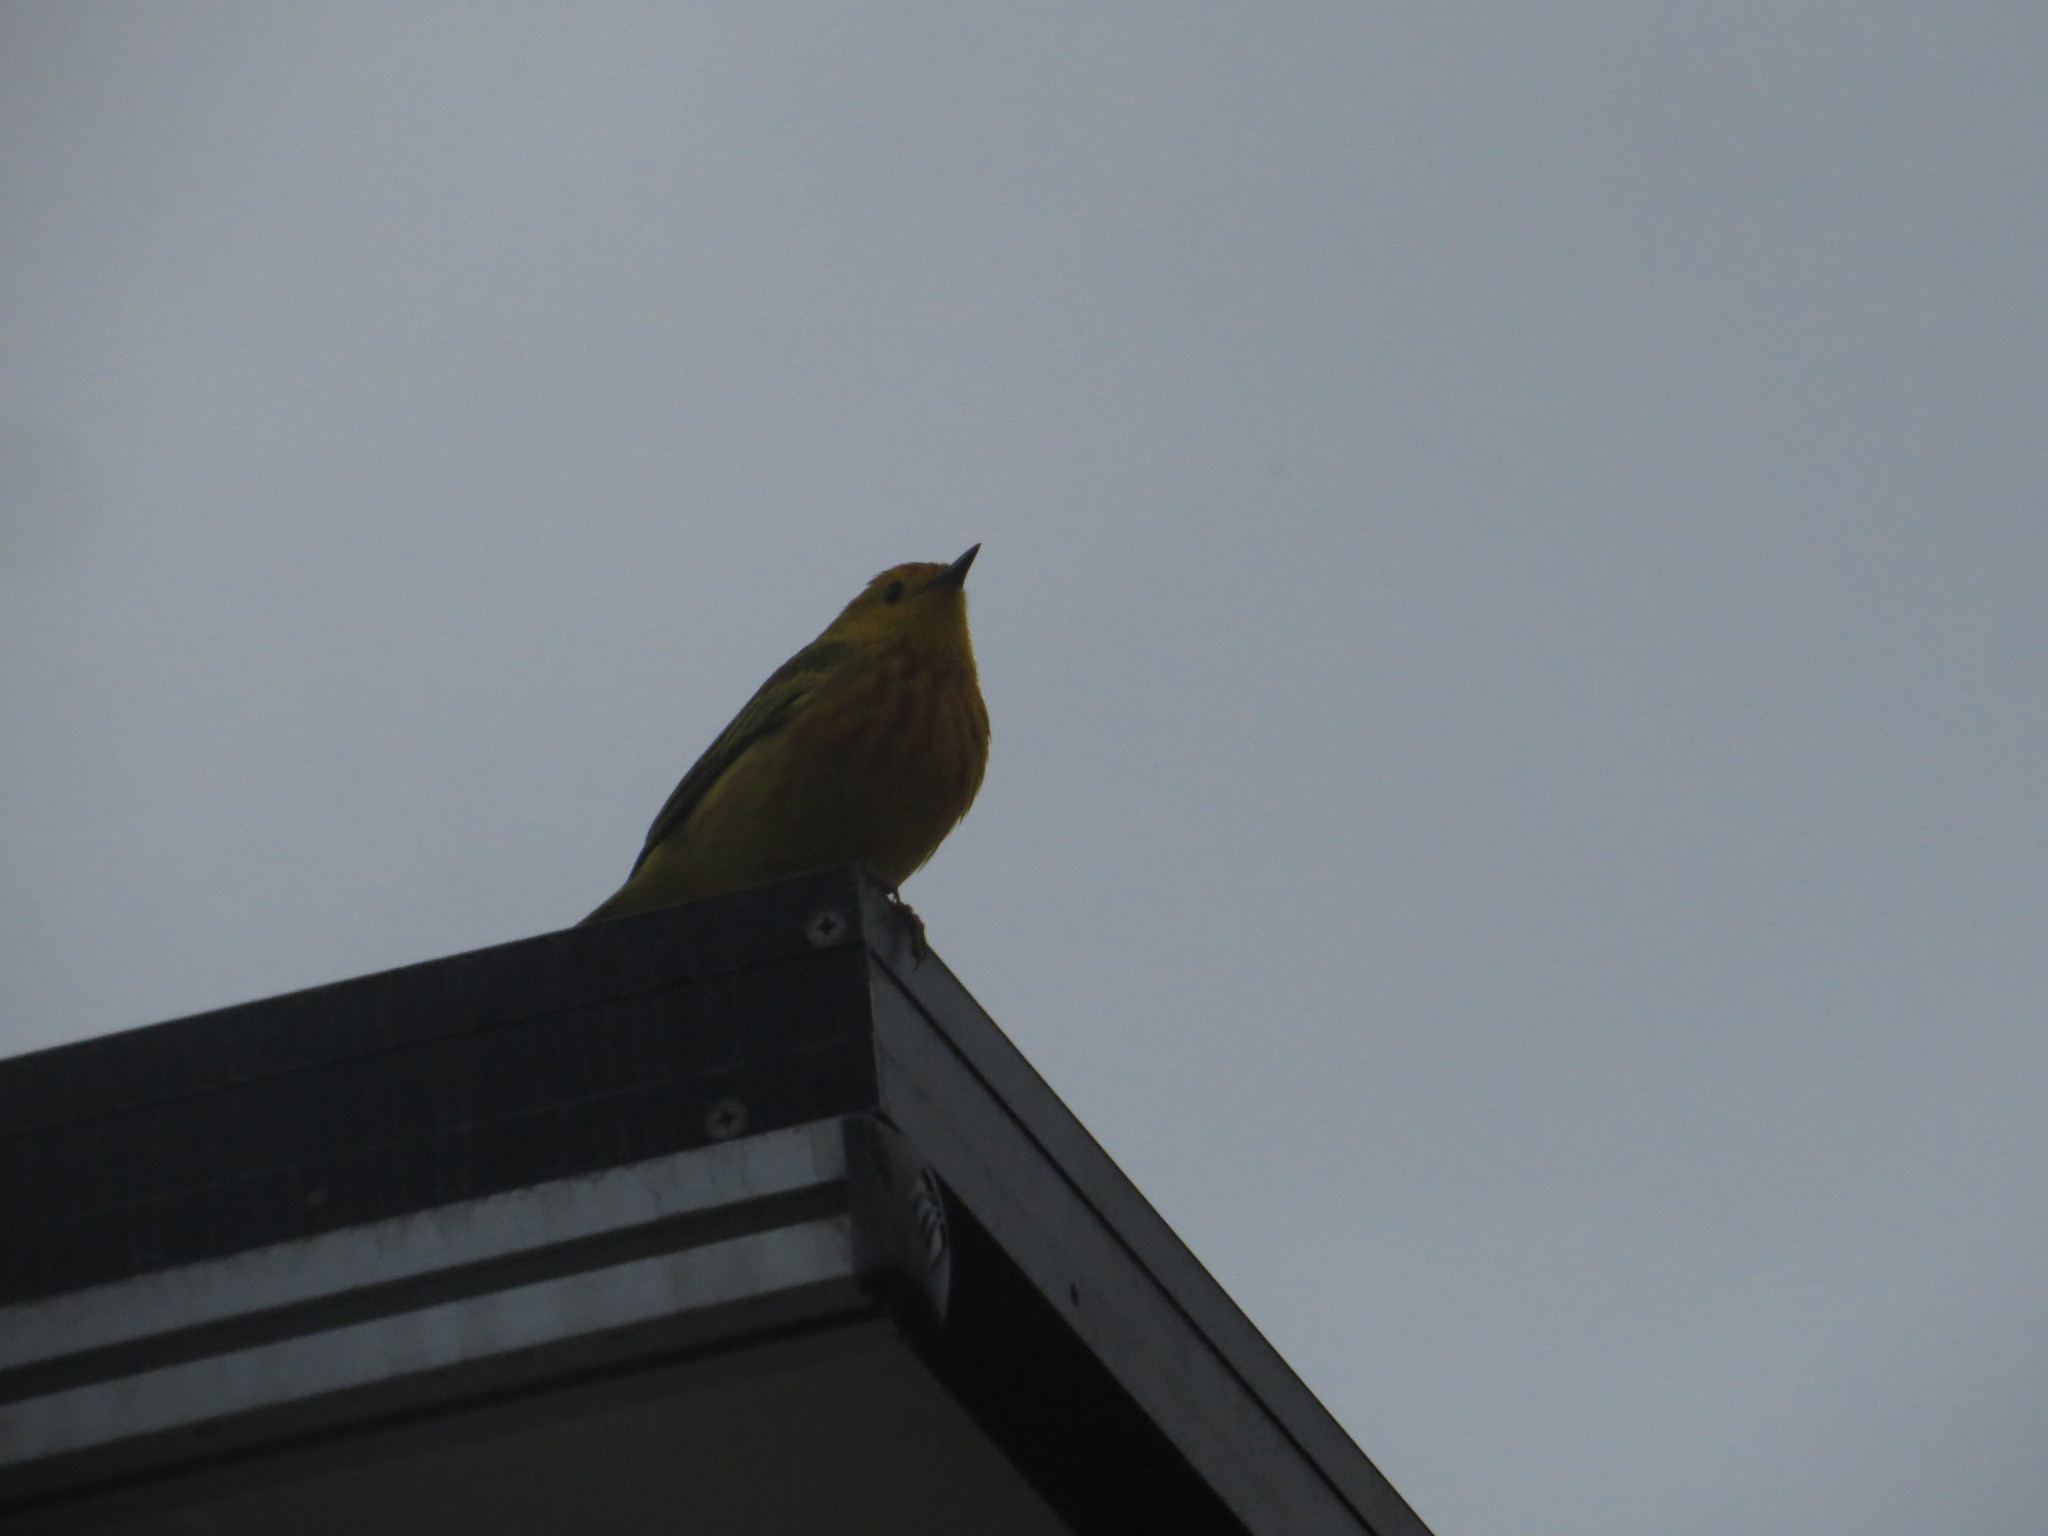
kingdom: Animalia
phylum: Chordata
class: Aves
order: Passeriformes
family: Parulidae
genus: Setophaga
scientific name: Setophaga petechia
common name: Yellow warbler
